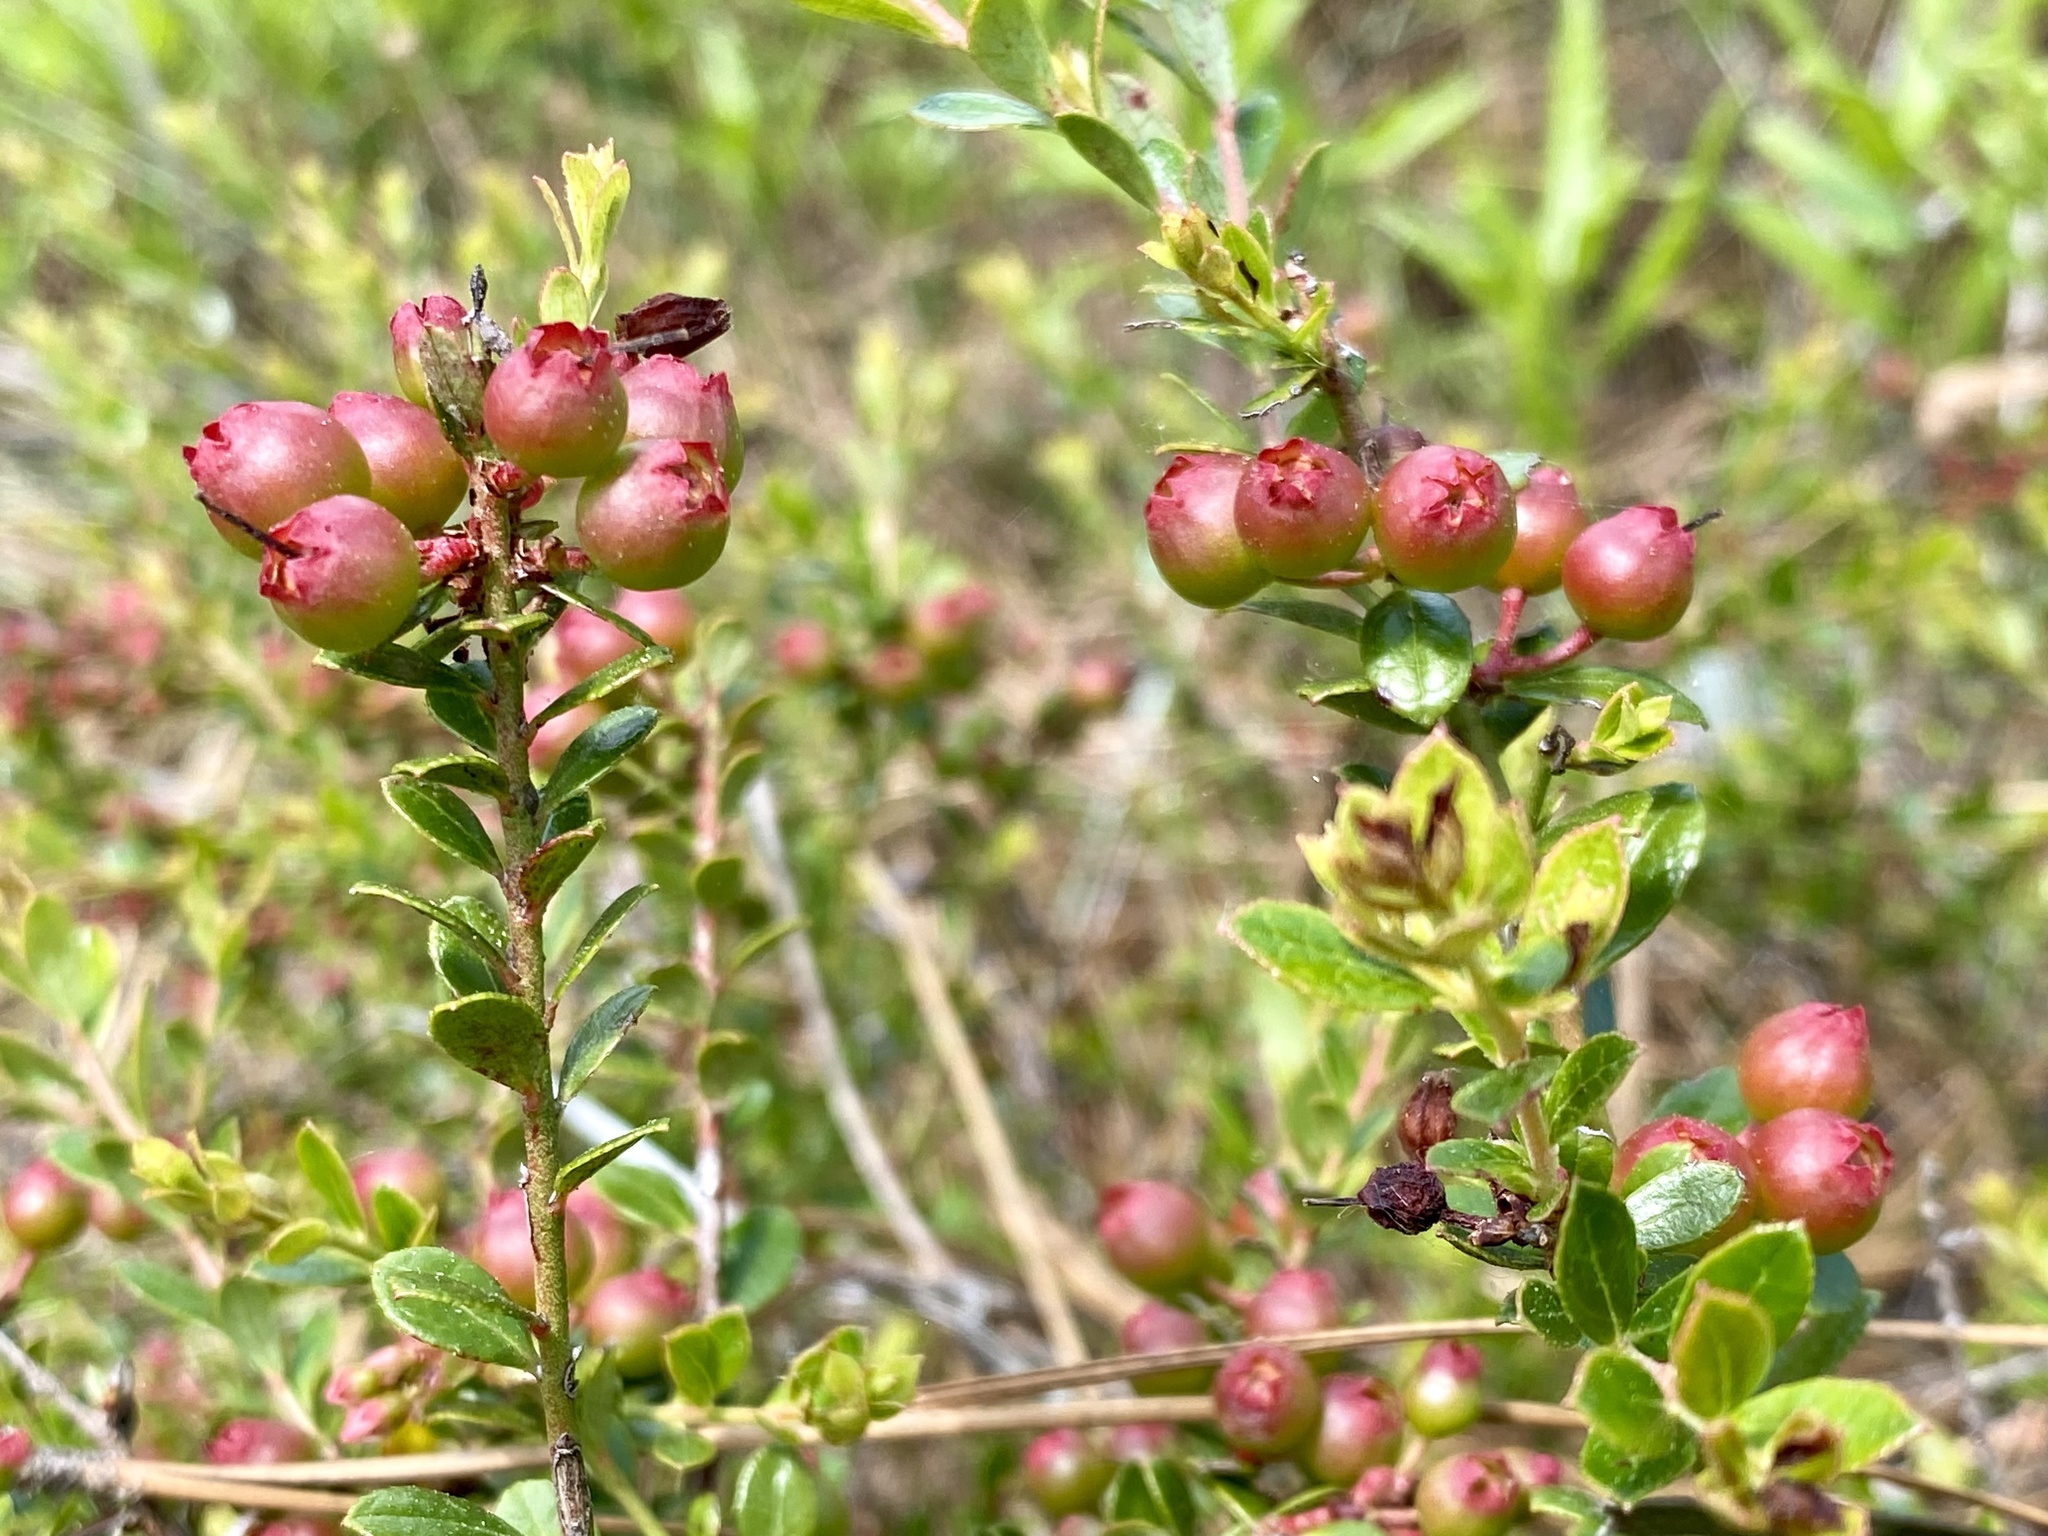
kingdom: Plantae
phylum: Tracheophyta
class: Magnoliopsida
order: Ericales
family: Ericaceae
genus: Vaccinium
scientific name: Vaccinium myrsinites
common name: Evergreen blueberry
